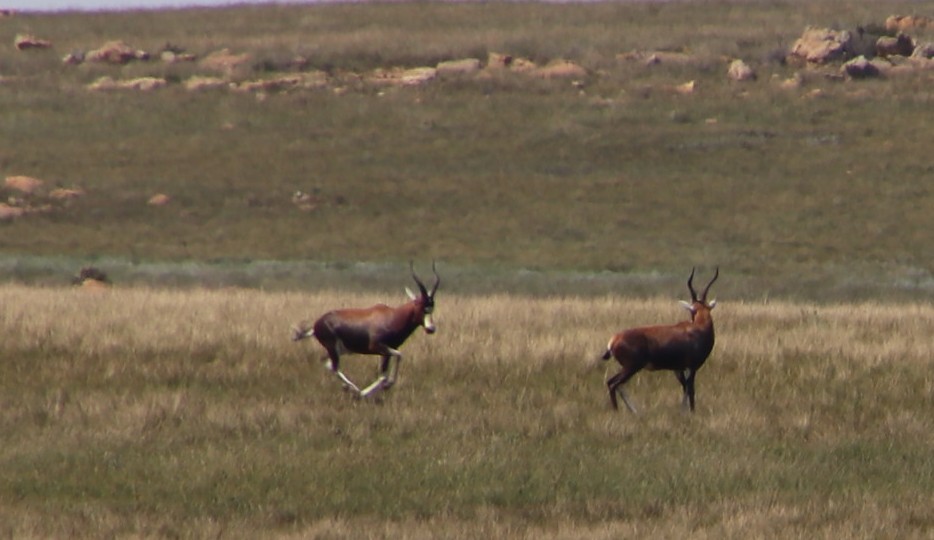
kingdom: Animalia
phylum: Chordata
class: Mammalia
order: Artiodactyla
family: Bovidae
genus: Damaliscus
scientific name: Damaliscus pygargus
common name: Bontebok
